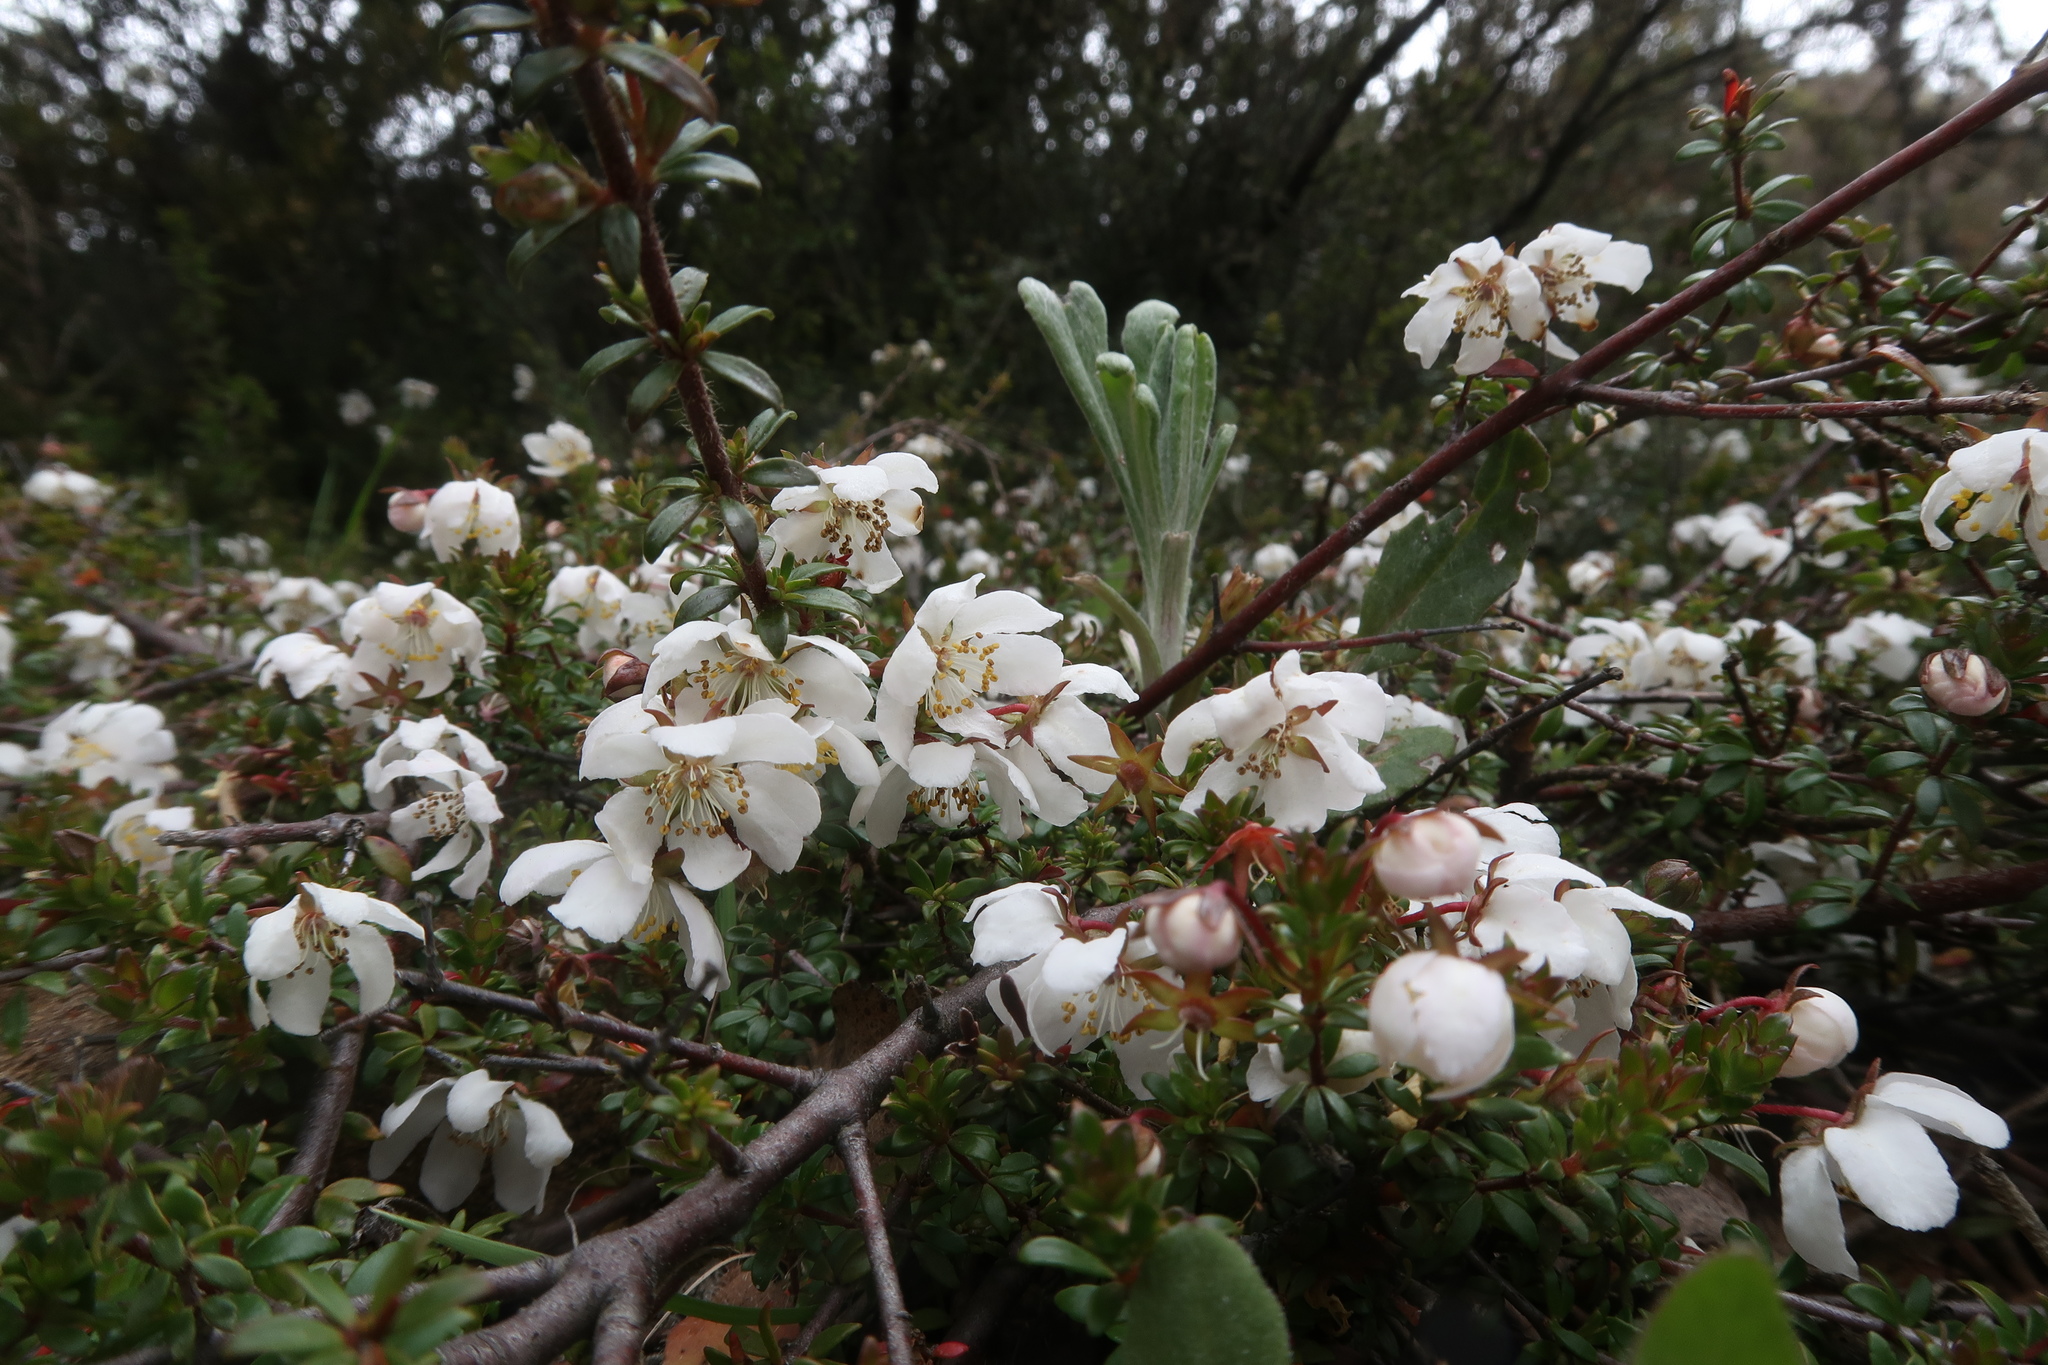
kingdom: Plantae
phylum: Tracheophyta
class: Magnoliopsida
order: Oxalidales
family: Cunoniaceae
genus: Bauera
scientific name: Bauera rubioides
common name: River-rose
